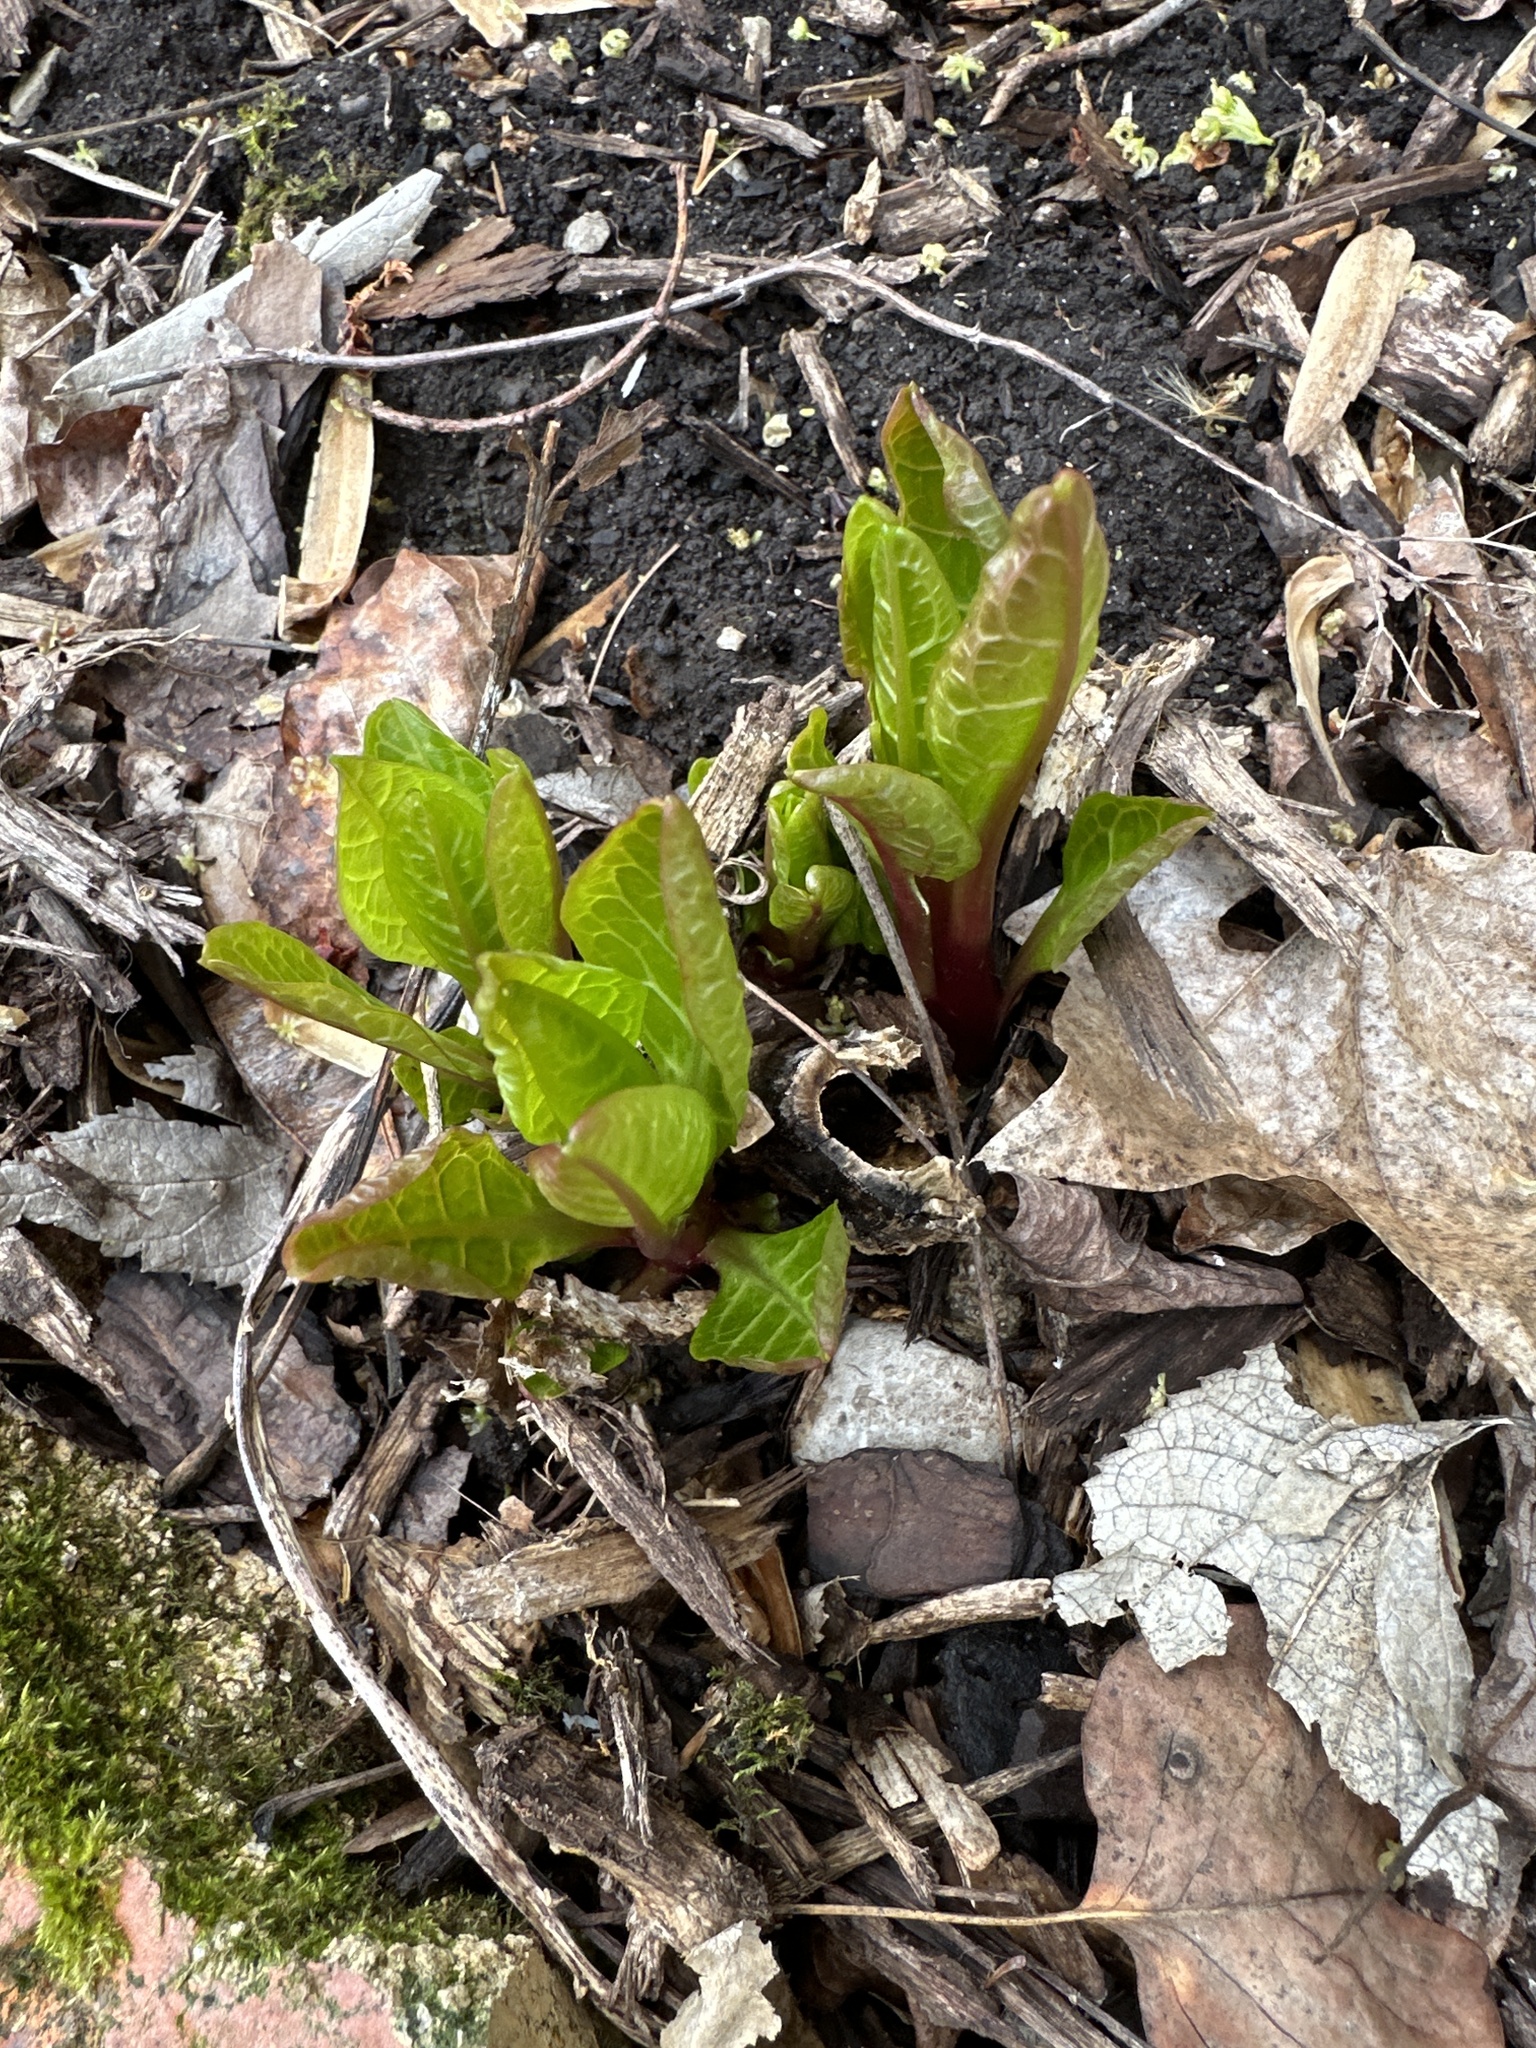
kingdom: Plantae
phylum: Tracheophyta
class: Magnoliopsida
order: Caryophyllales
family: Phytolaccaceae
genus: Phytolacca
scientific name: Phytolacca americana
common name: American pokeweed
